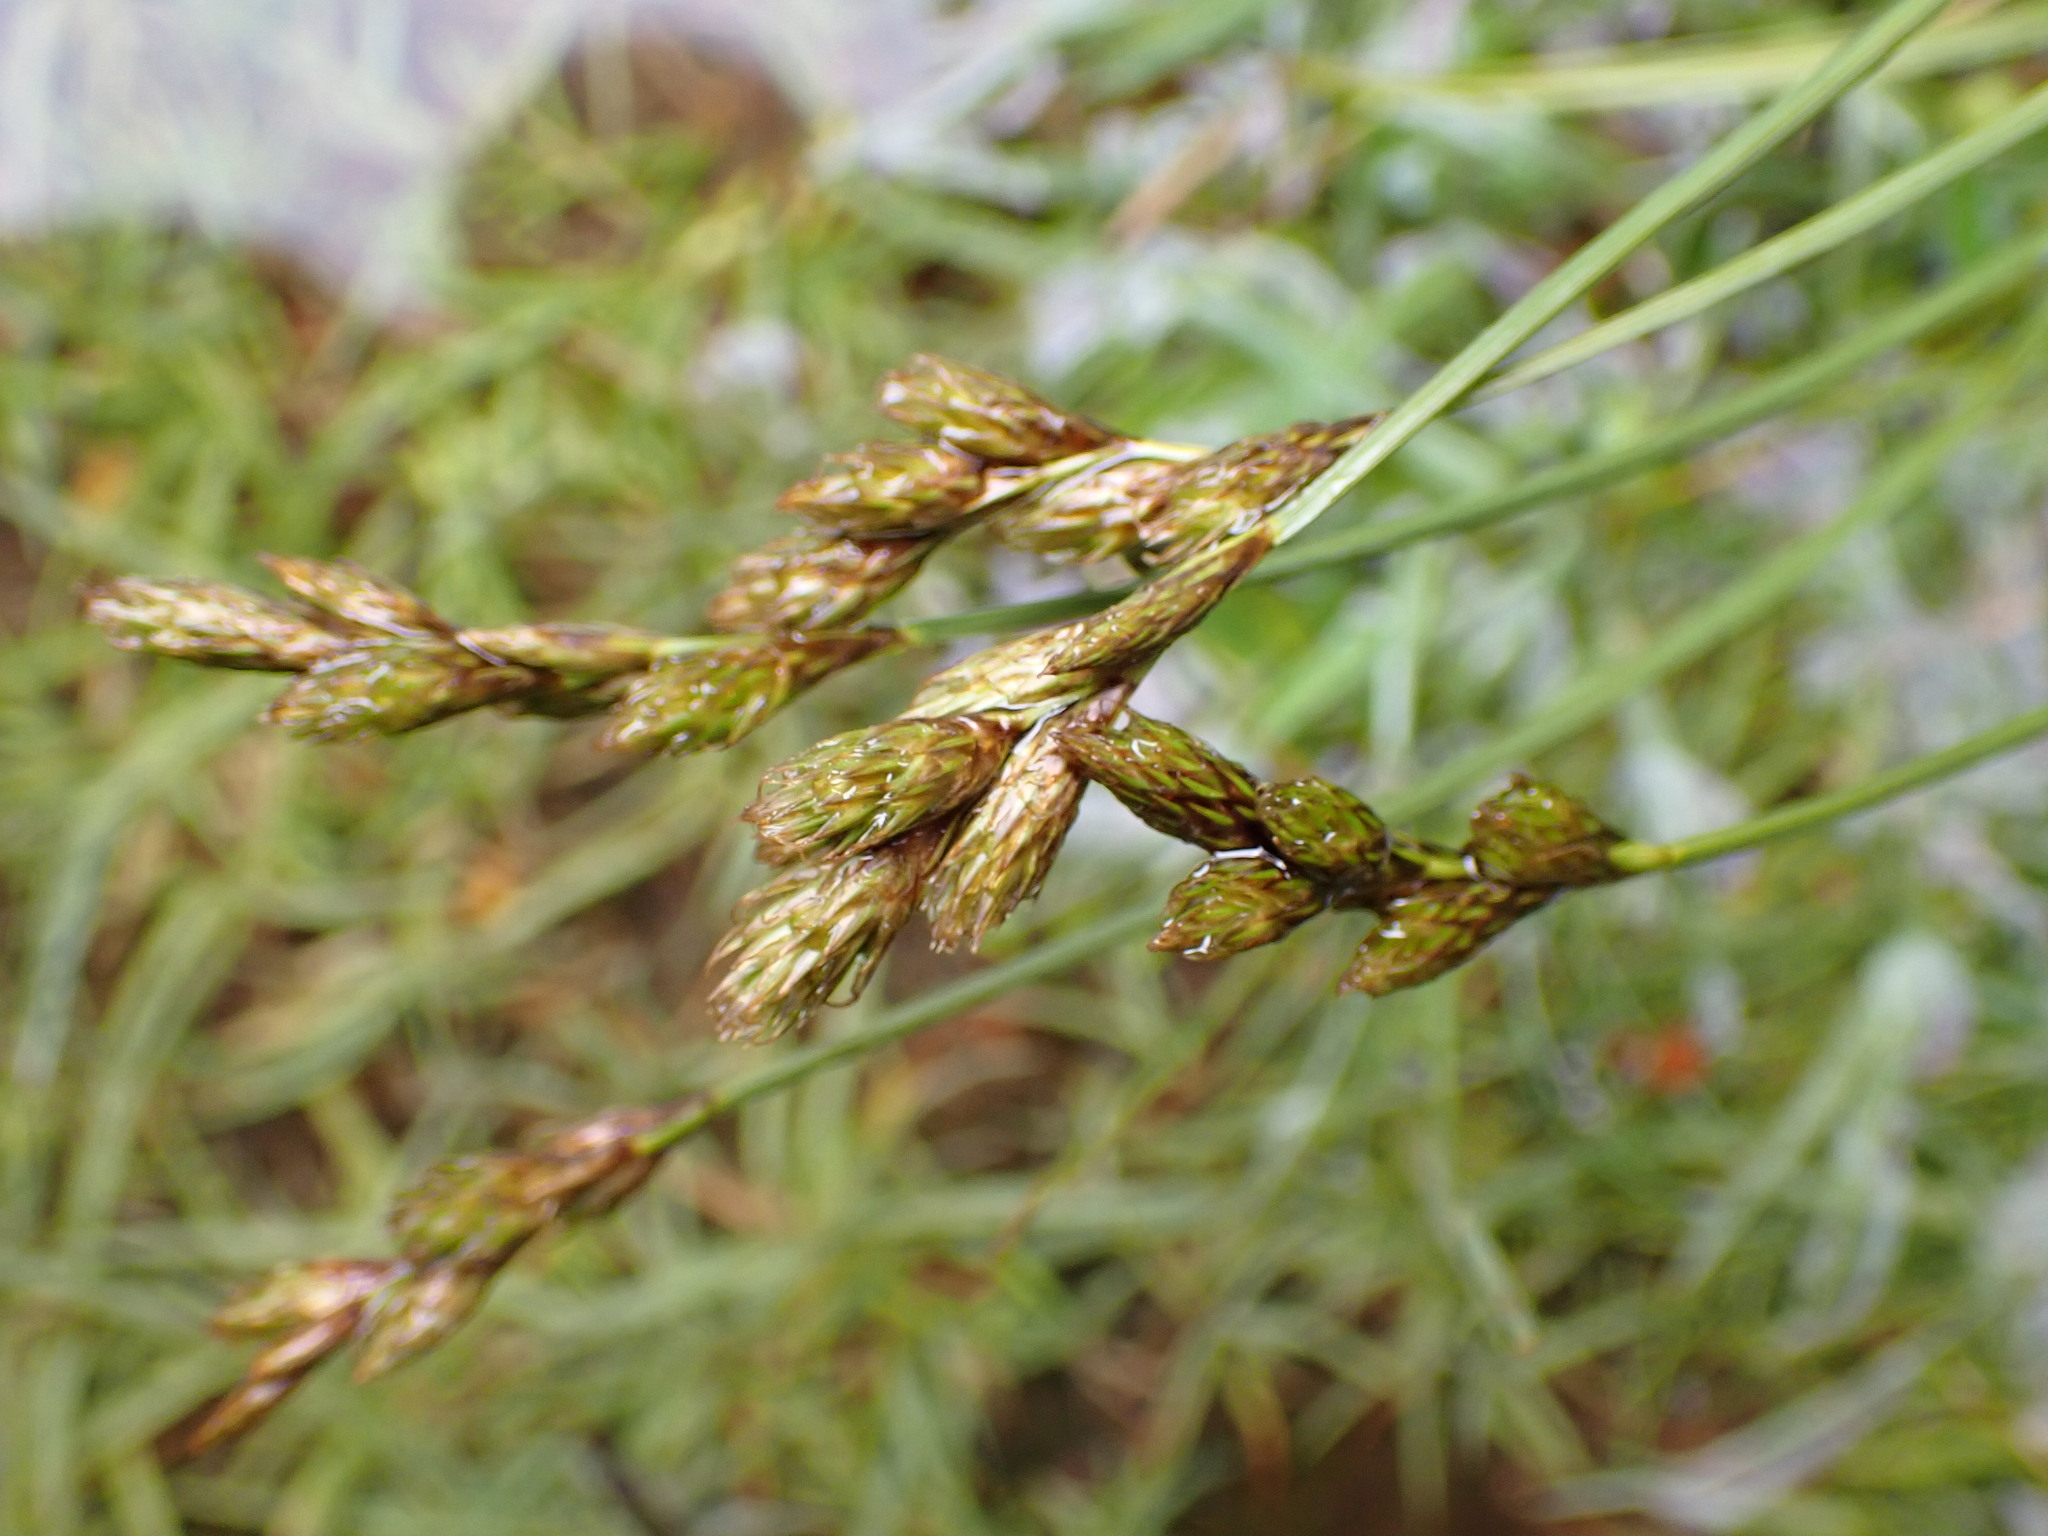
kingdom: Plantae
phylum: Tracheophyta
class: Liliopsida
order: Poales
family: Cyperaceae
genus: Carex
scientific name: Carex leporina
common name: Oval sedge
